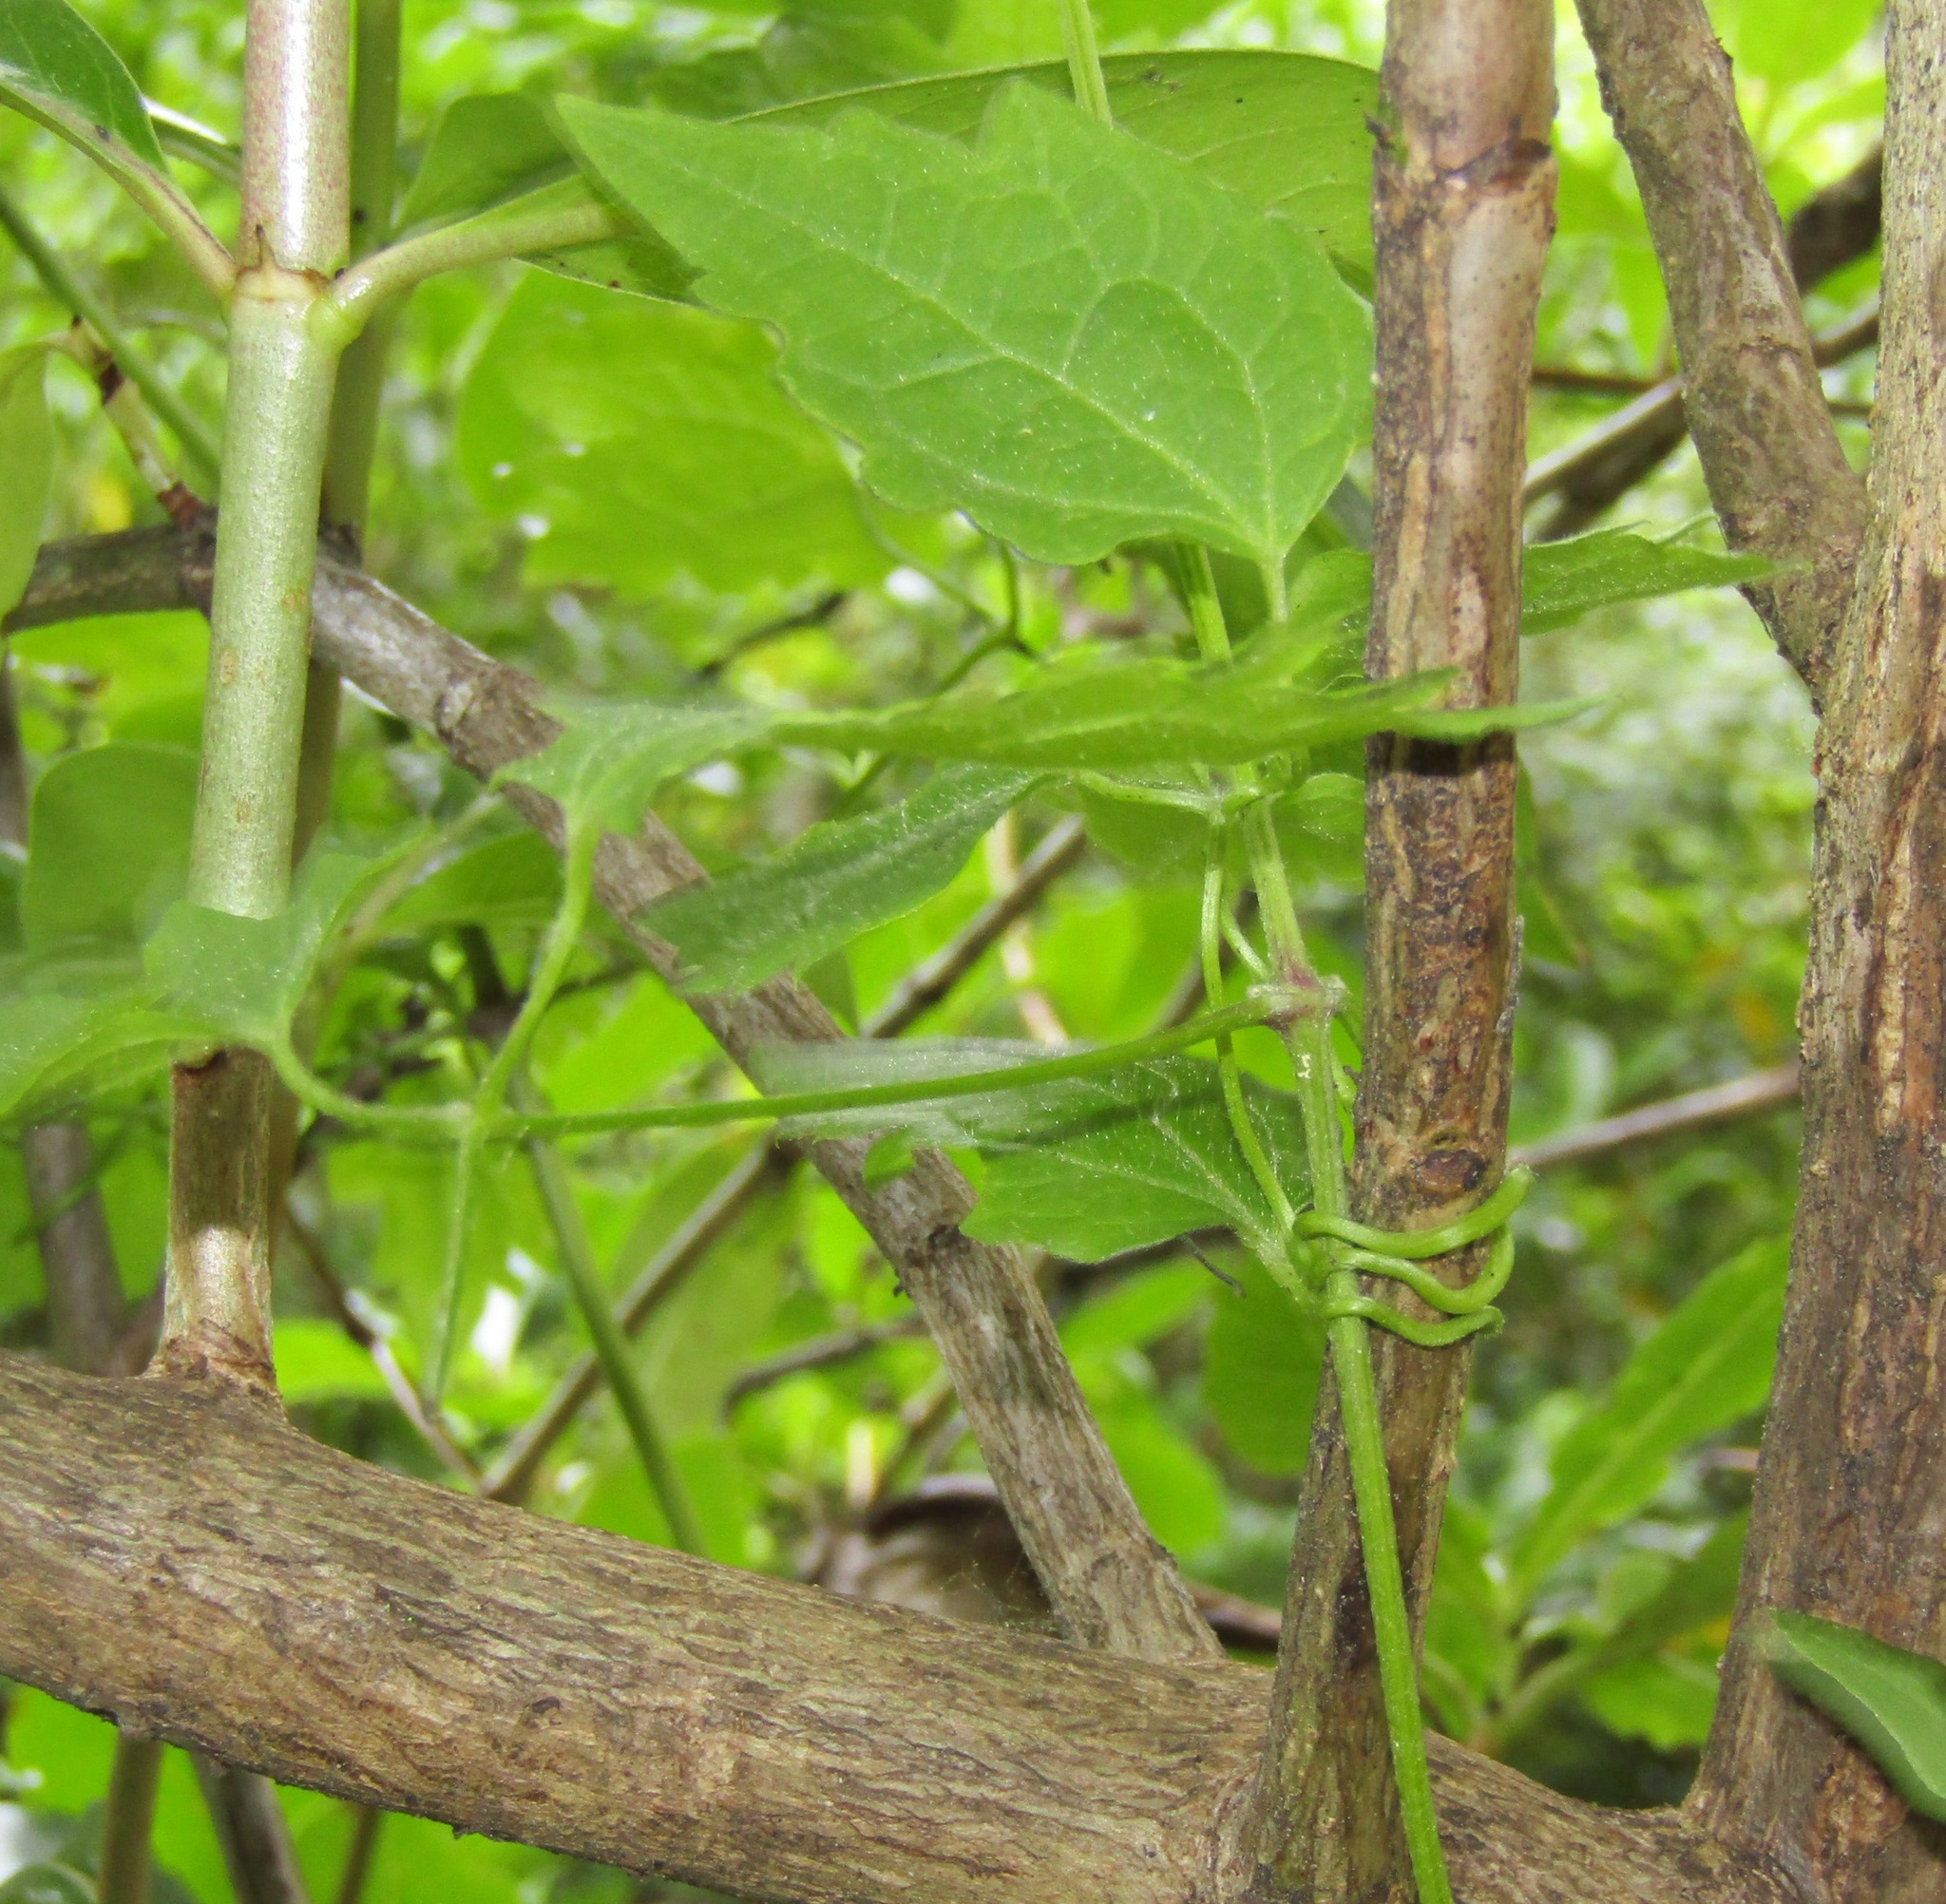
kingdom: Plantae
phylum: Tracheophyta
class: Magnoliopsida
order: Ranunculales
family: Ranunculaceae
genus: Clematis
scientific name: Clematis vitalba
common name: Evergreen clematis
